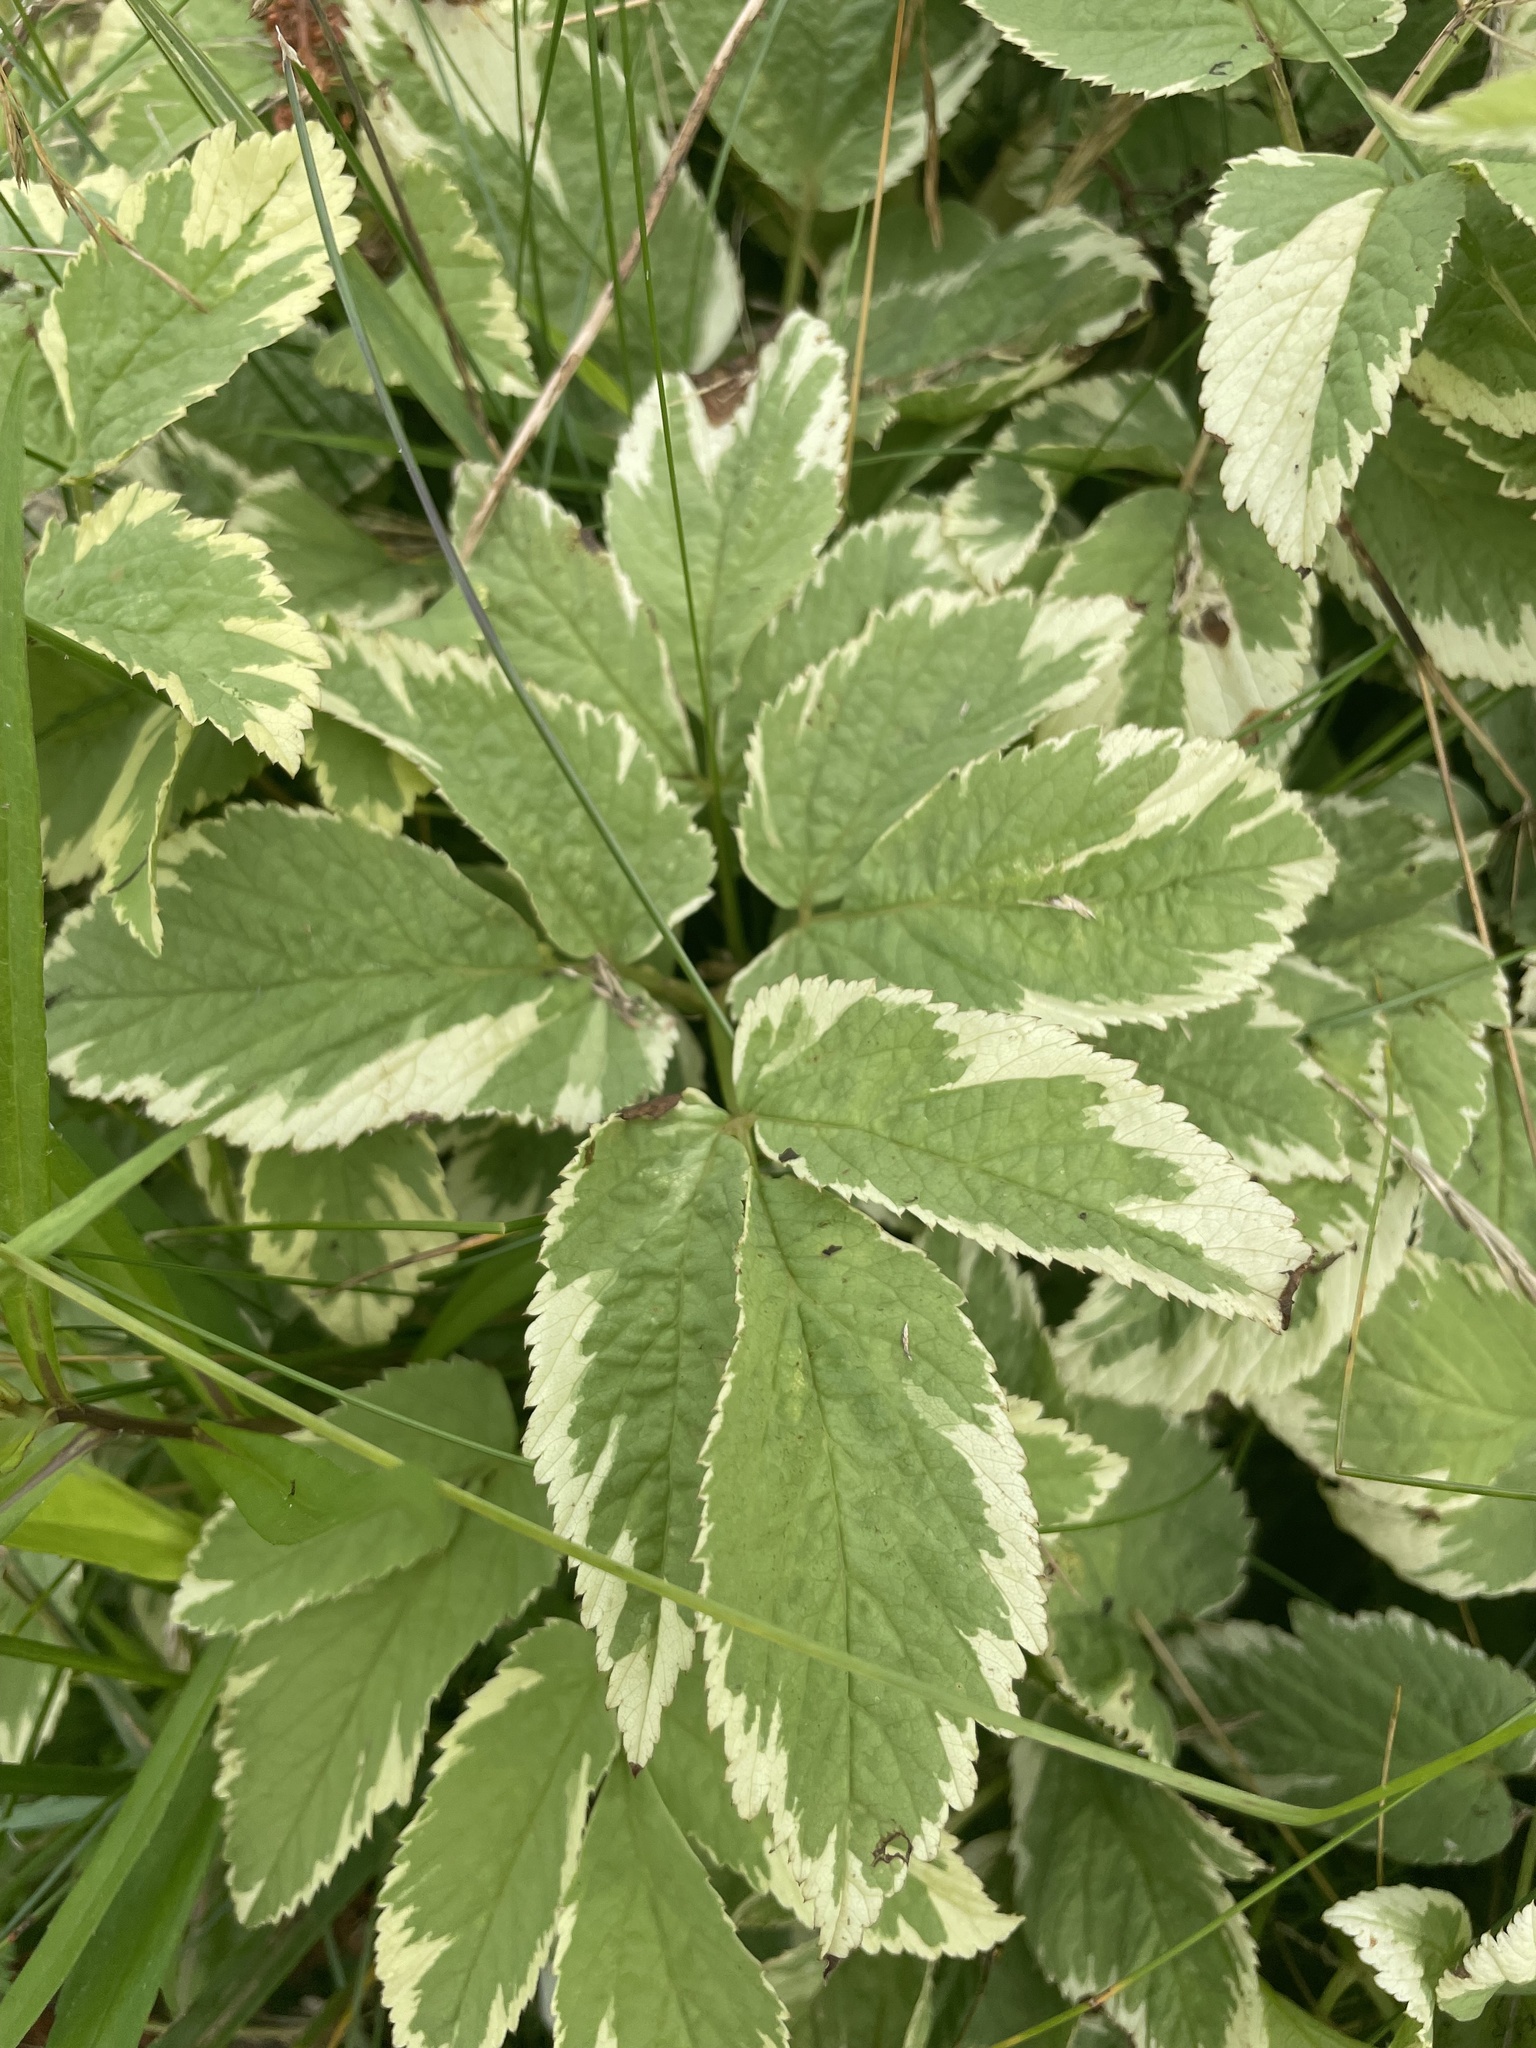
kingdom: Plantae
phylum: Tracheophyta
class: Magnoliopsida
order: Apiales
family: Apiaceae
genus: Aegopodium
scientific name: Aegopodium podagraria
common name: Ground-elder
